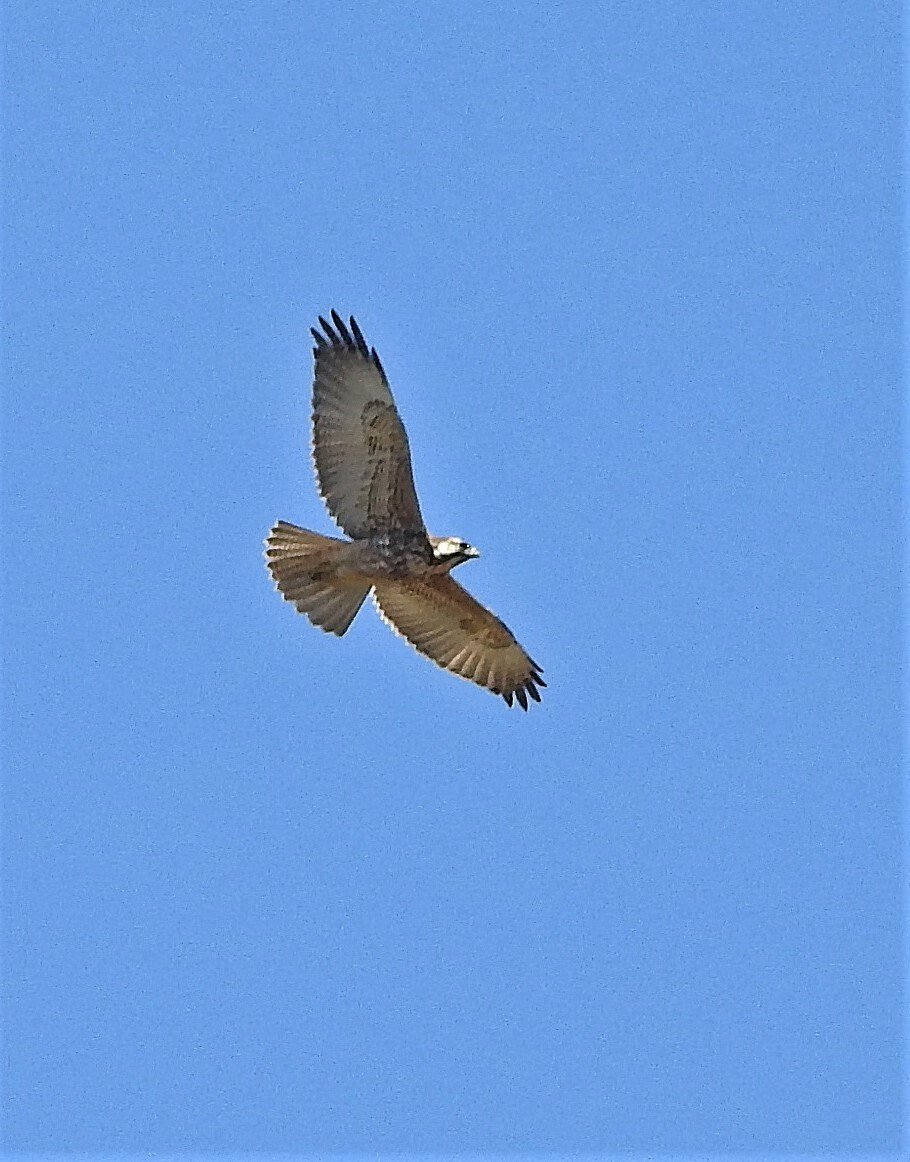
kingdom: Animalia
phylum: Chordata
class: Aves
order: Accipitriformes
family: Accipitridae
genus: Buteo
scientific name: Buteo polyosoma
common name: Variable hawk
